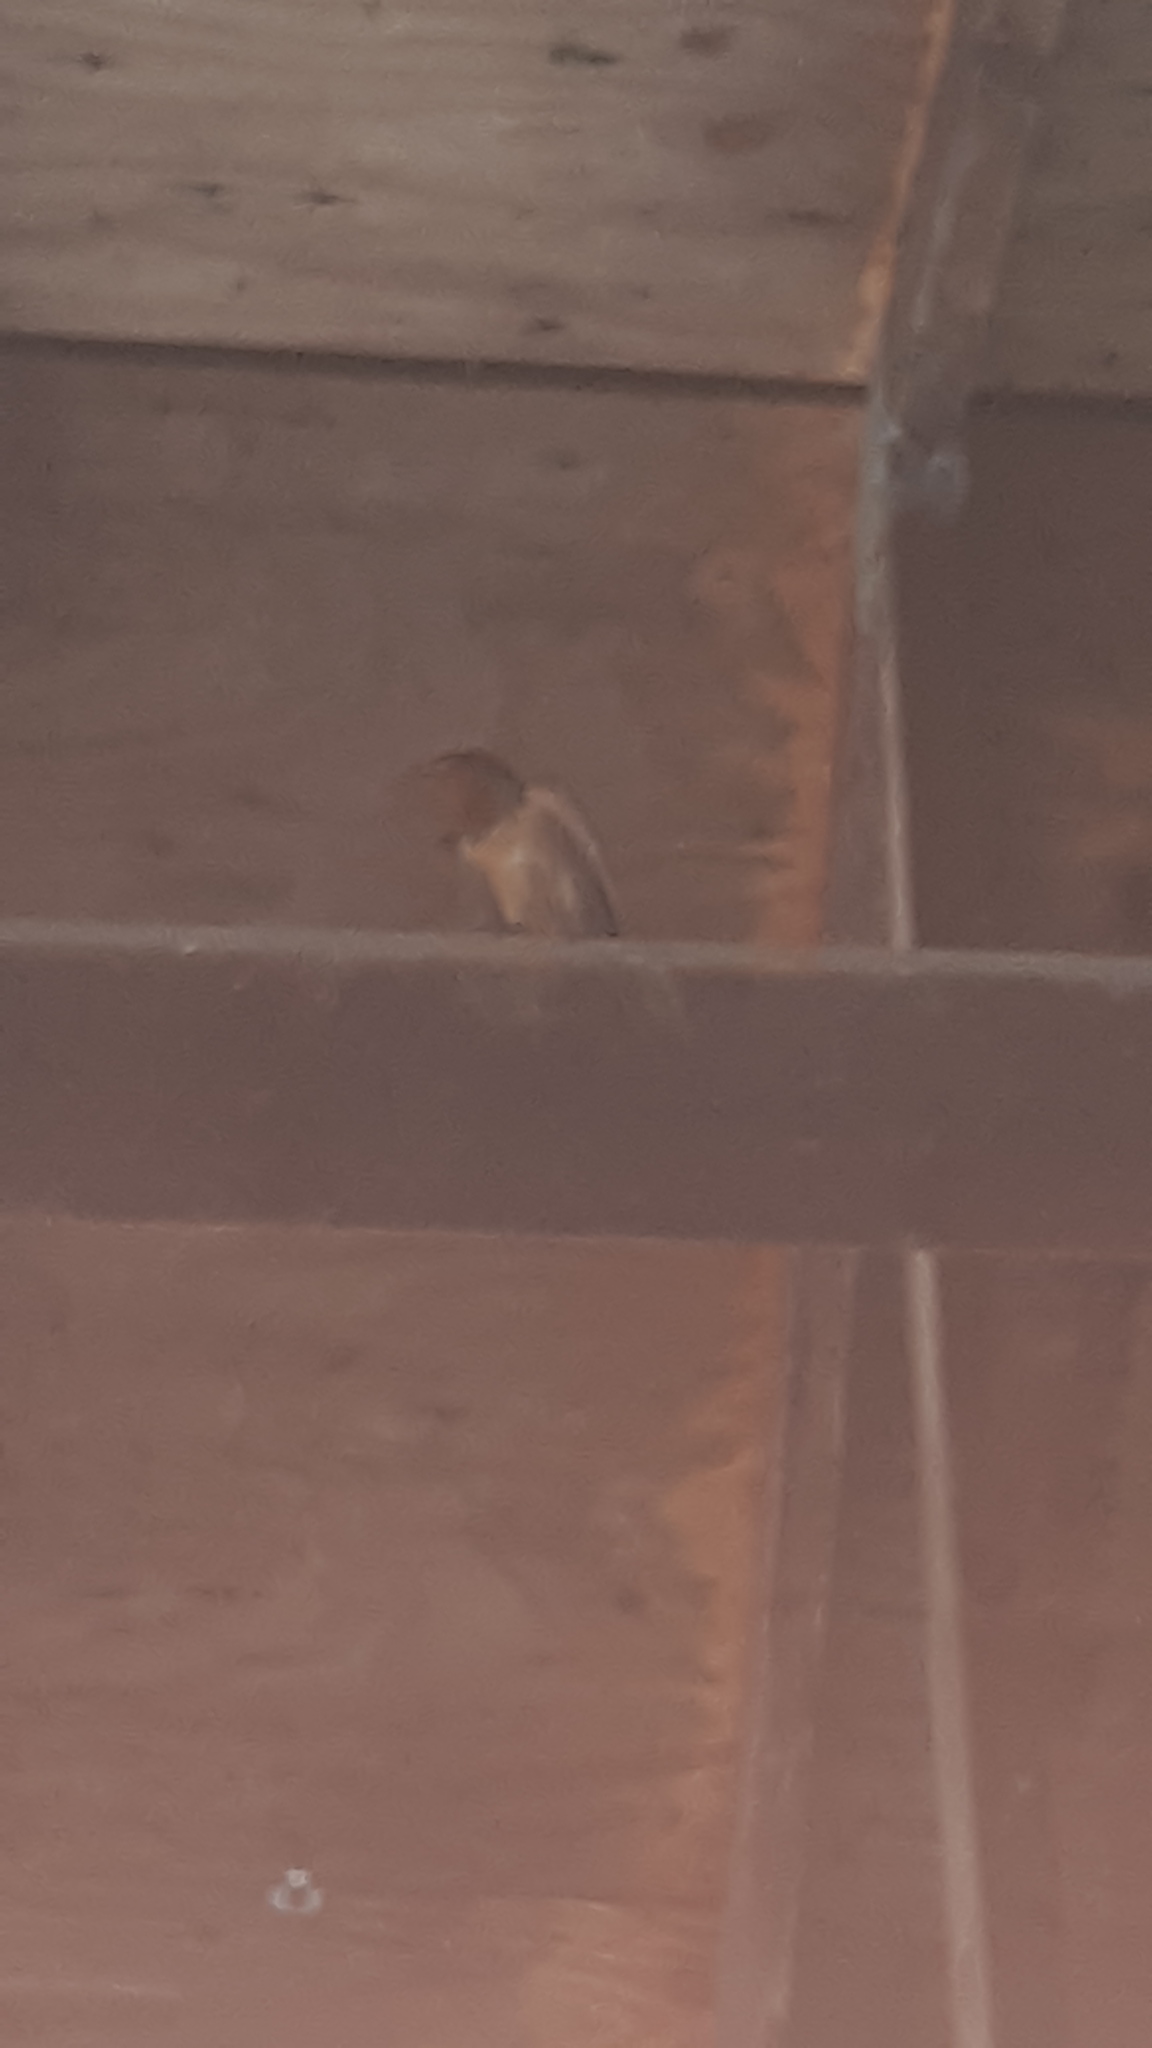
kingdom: Animalia
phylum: Chordata
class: Aves
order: Passeriformes
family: Hirundinidae
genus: Hirundo
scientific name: Hirundo rustica
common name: Barn swallow
